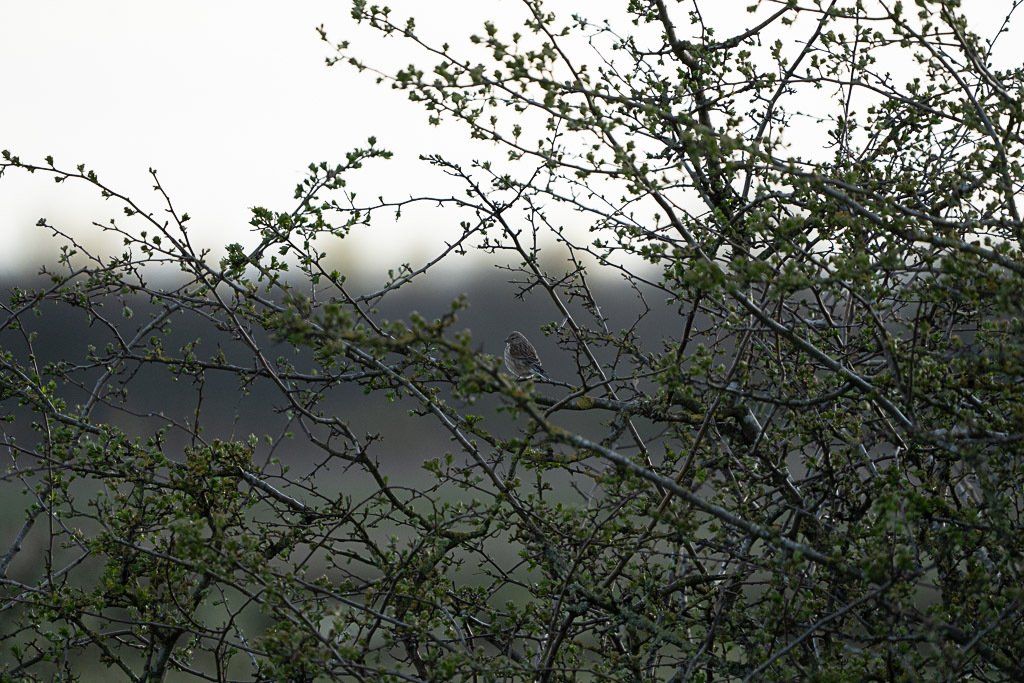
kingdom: Animalia
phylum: Chordata
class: Aves
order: Passeriformes
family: Fringillidae
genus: Linaria
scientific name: Linaria cannabina
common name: Common linnet
